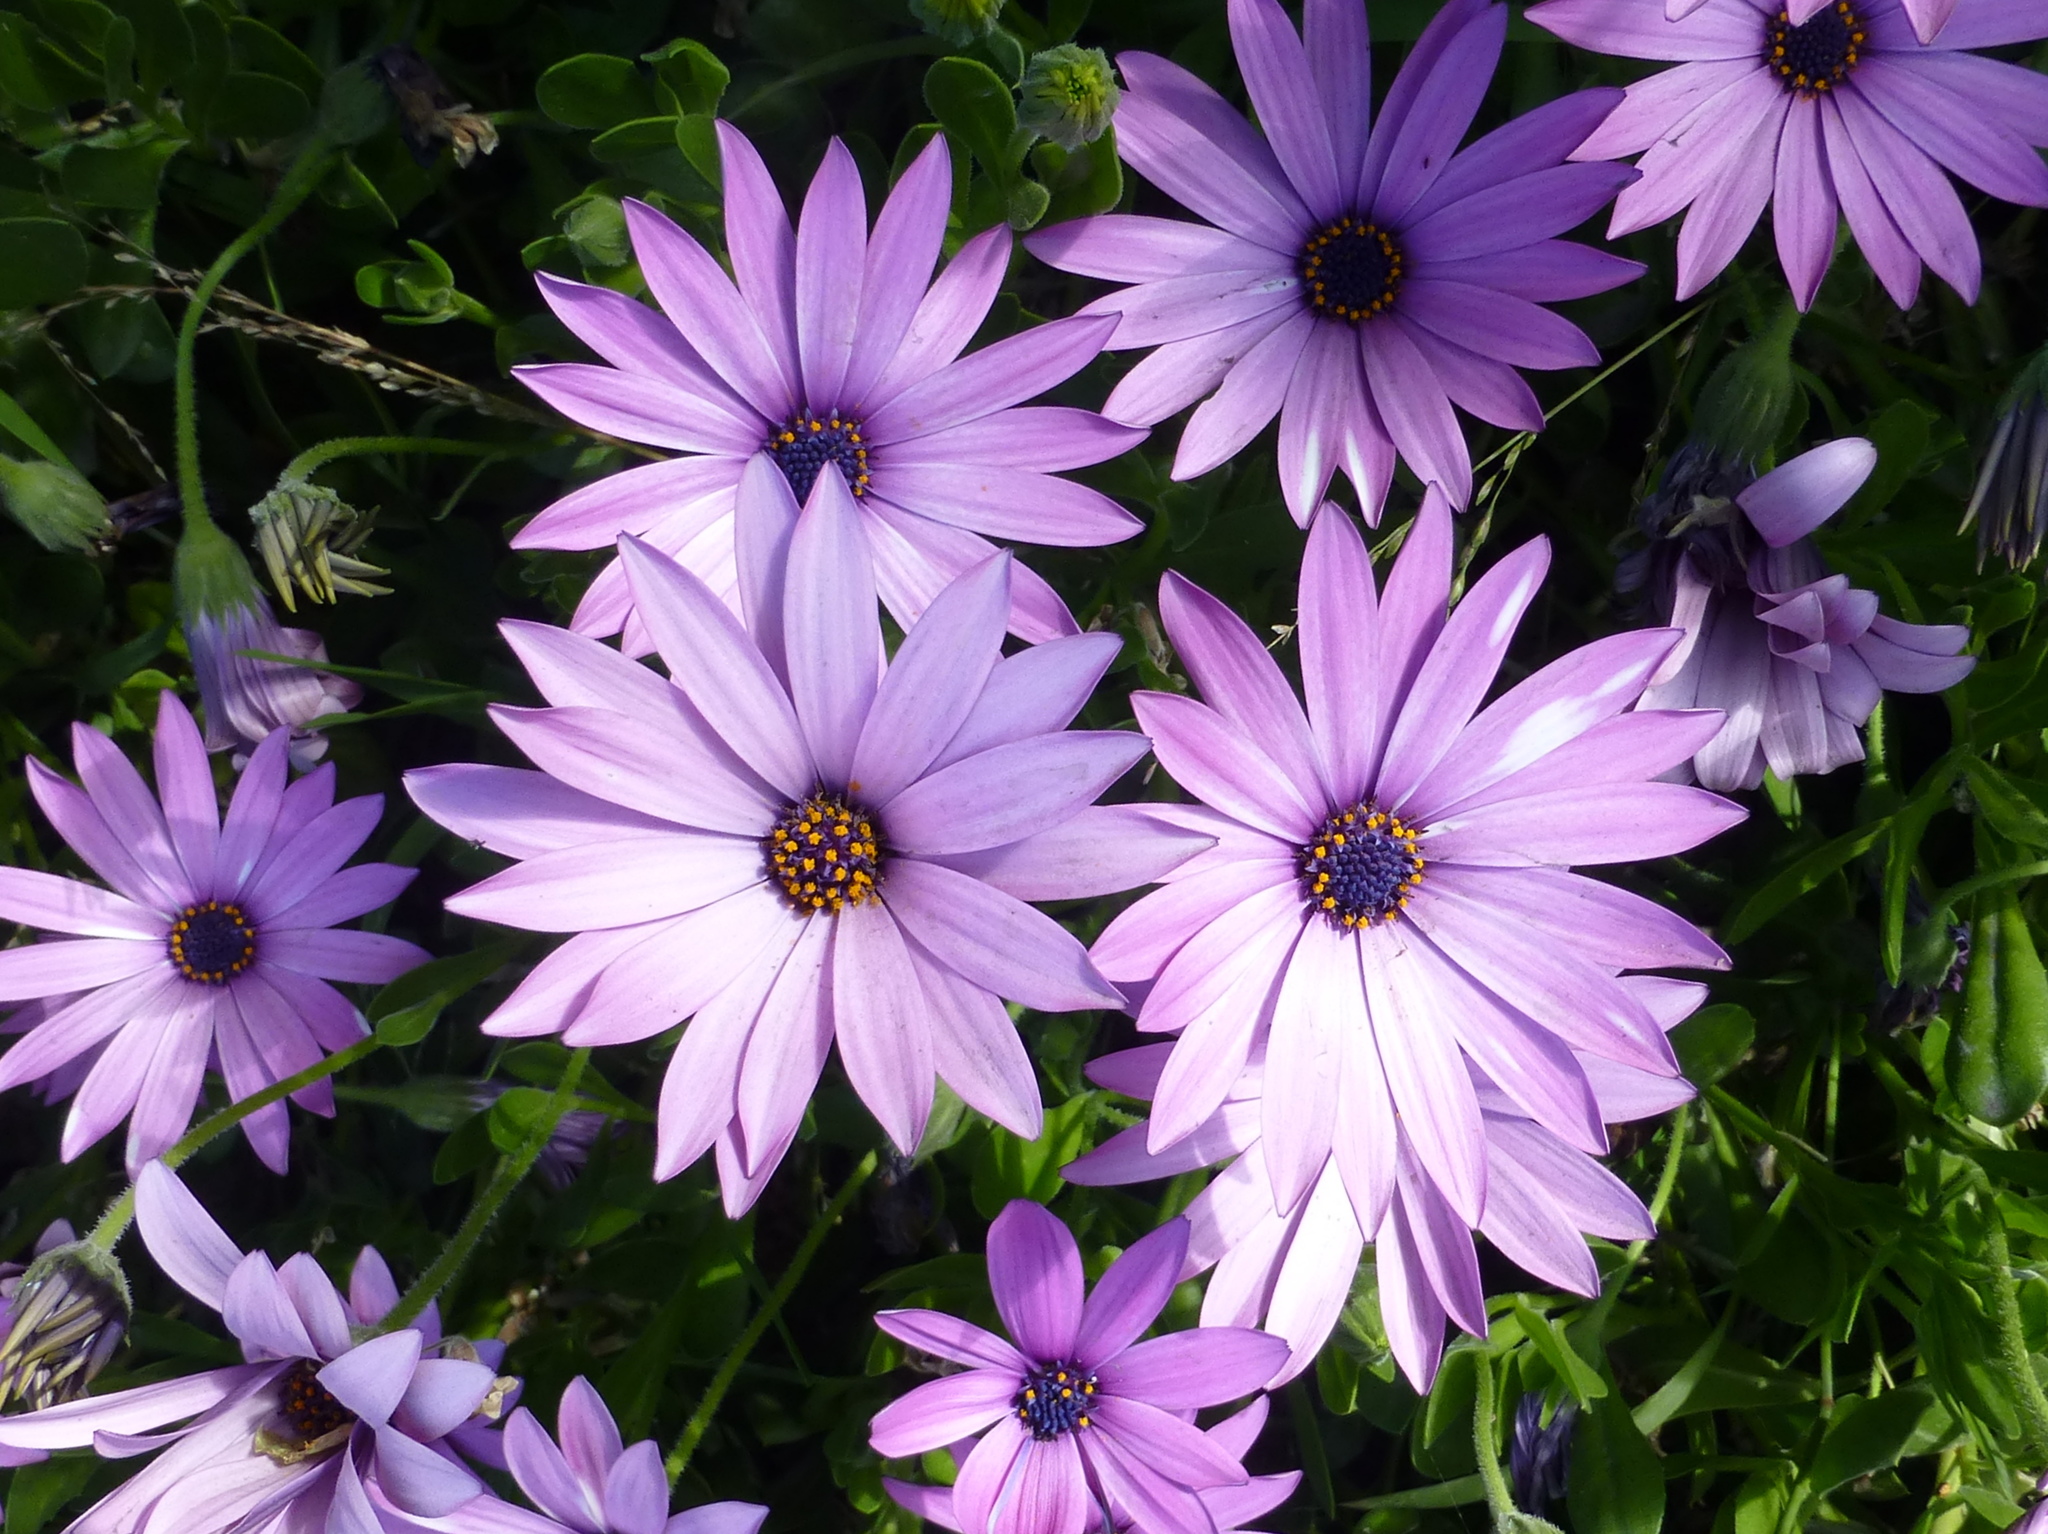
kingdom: Plantae
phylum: Tracheophyta
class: Magnoliopsida
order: Asterales
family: Asteraceae
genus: Dimorphotheca
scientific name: Dimorphotheca jucunda
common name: Osteospermum
